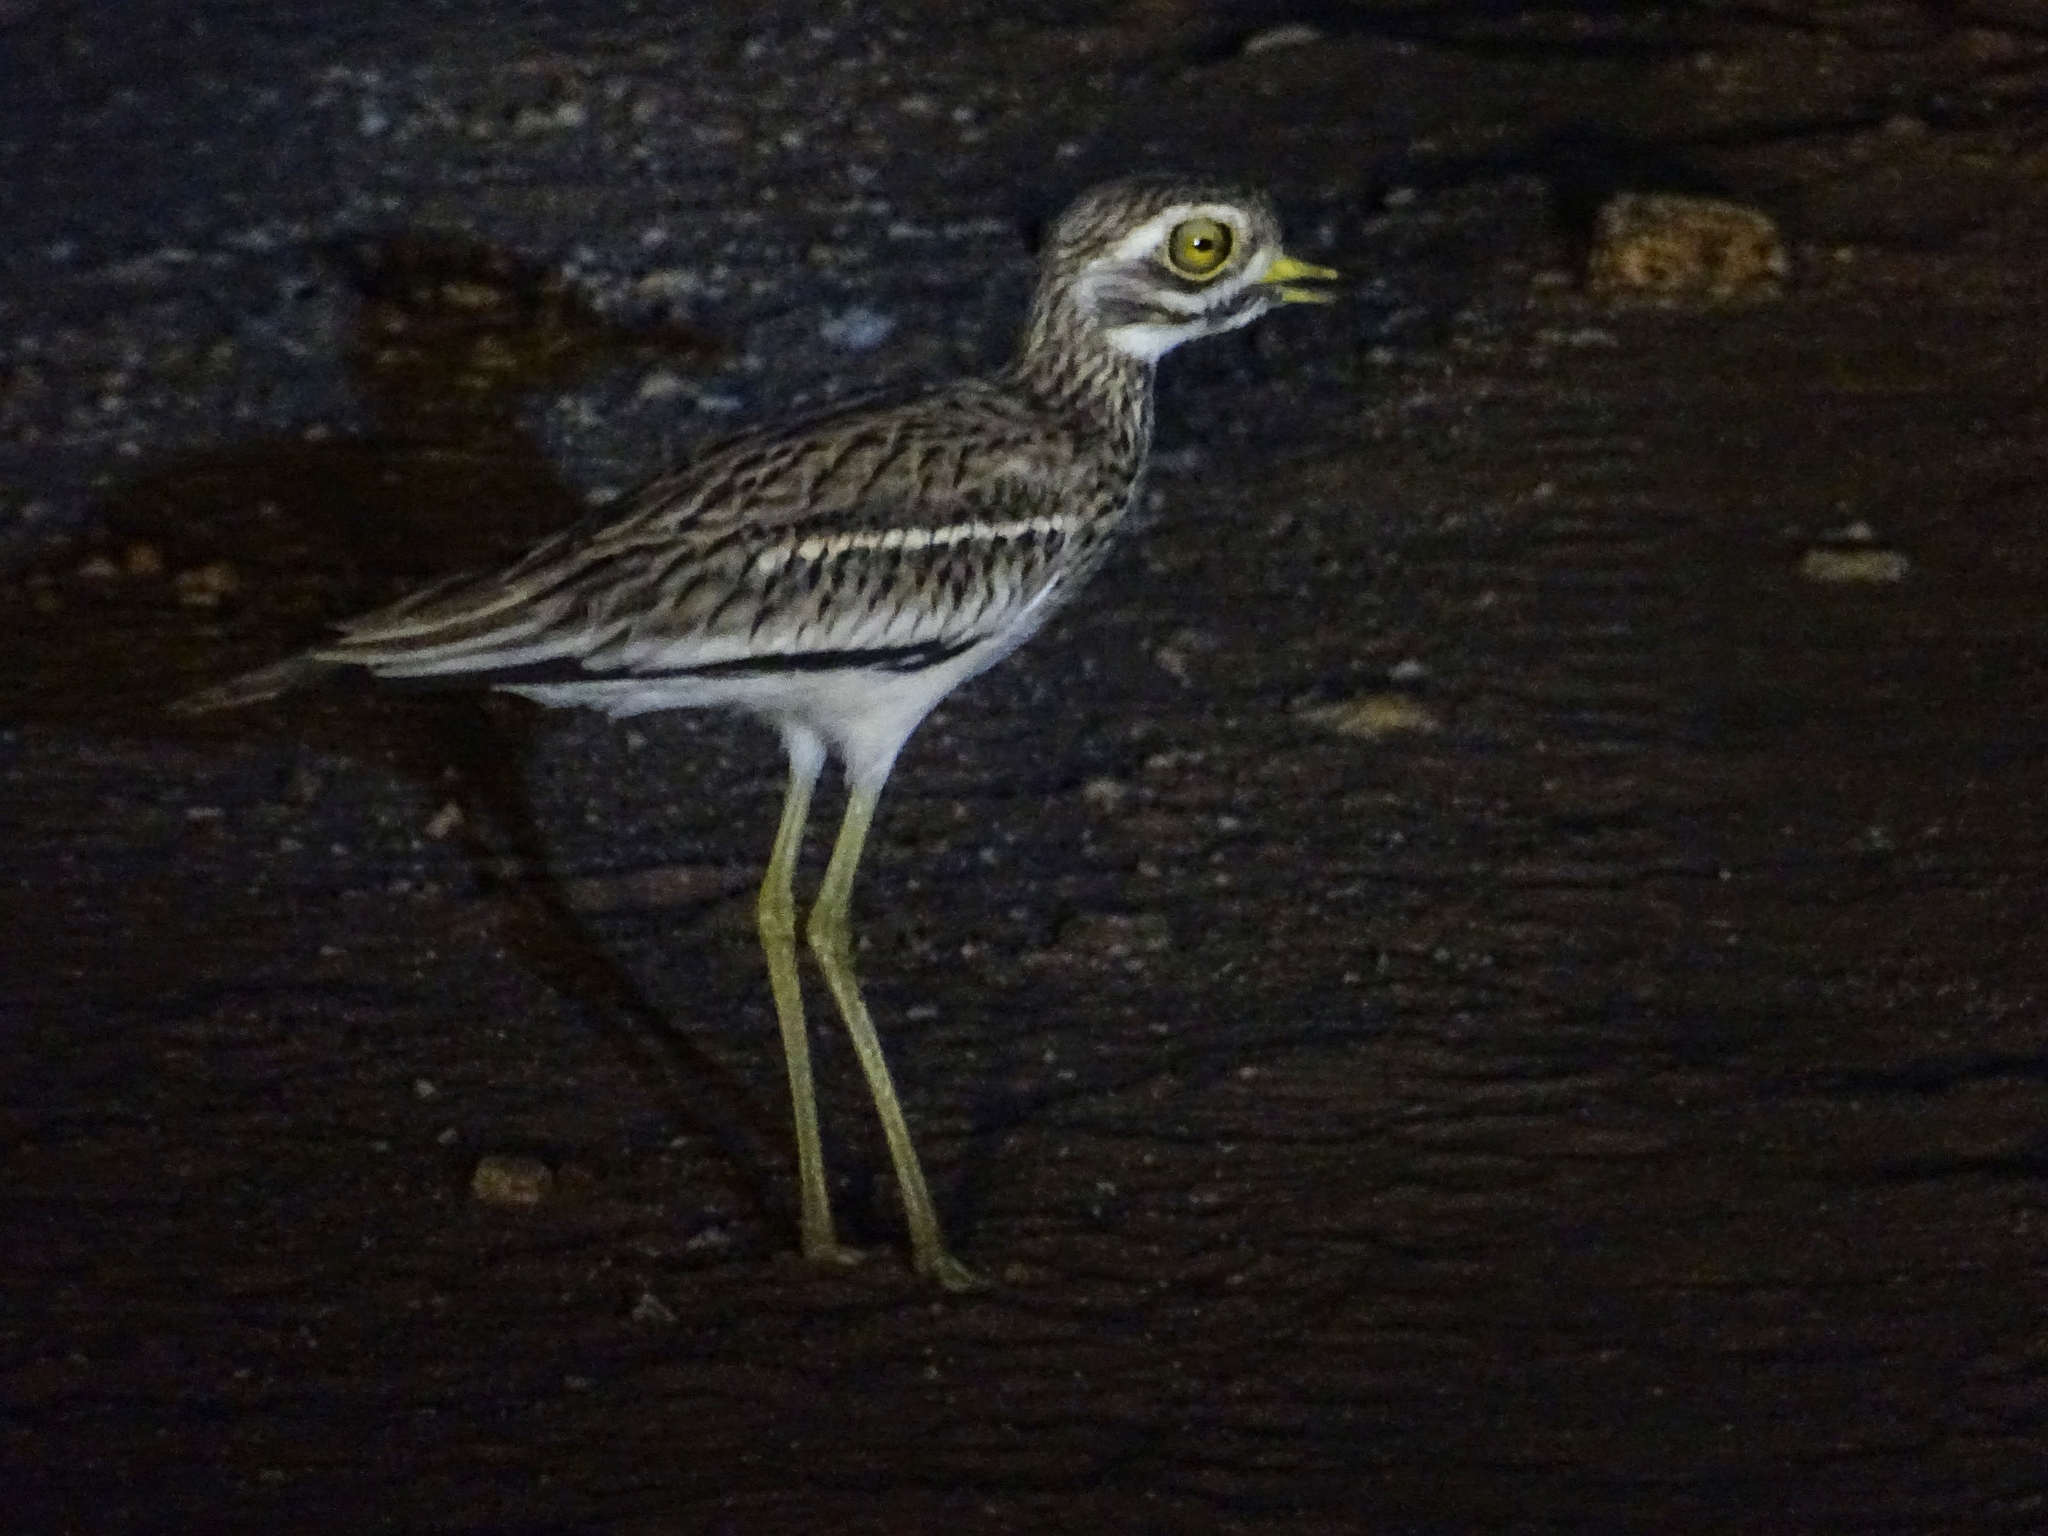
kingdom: Animalia
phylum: Chordata
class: Aves
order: Charadriiformes
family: Burhinidae
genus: Burhinus
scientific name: Burhinus indicus
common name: Indian thick-knee
